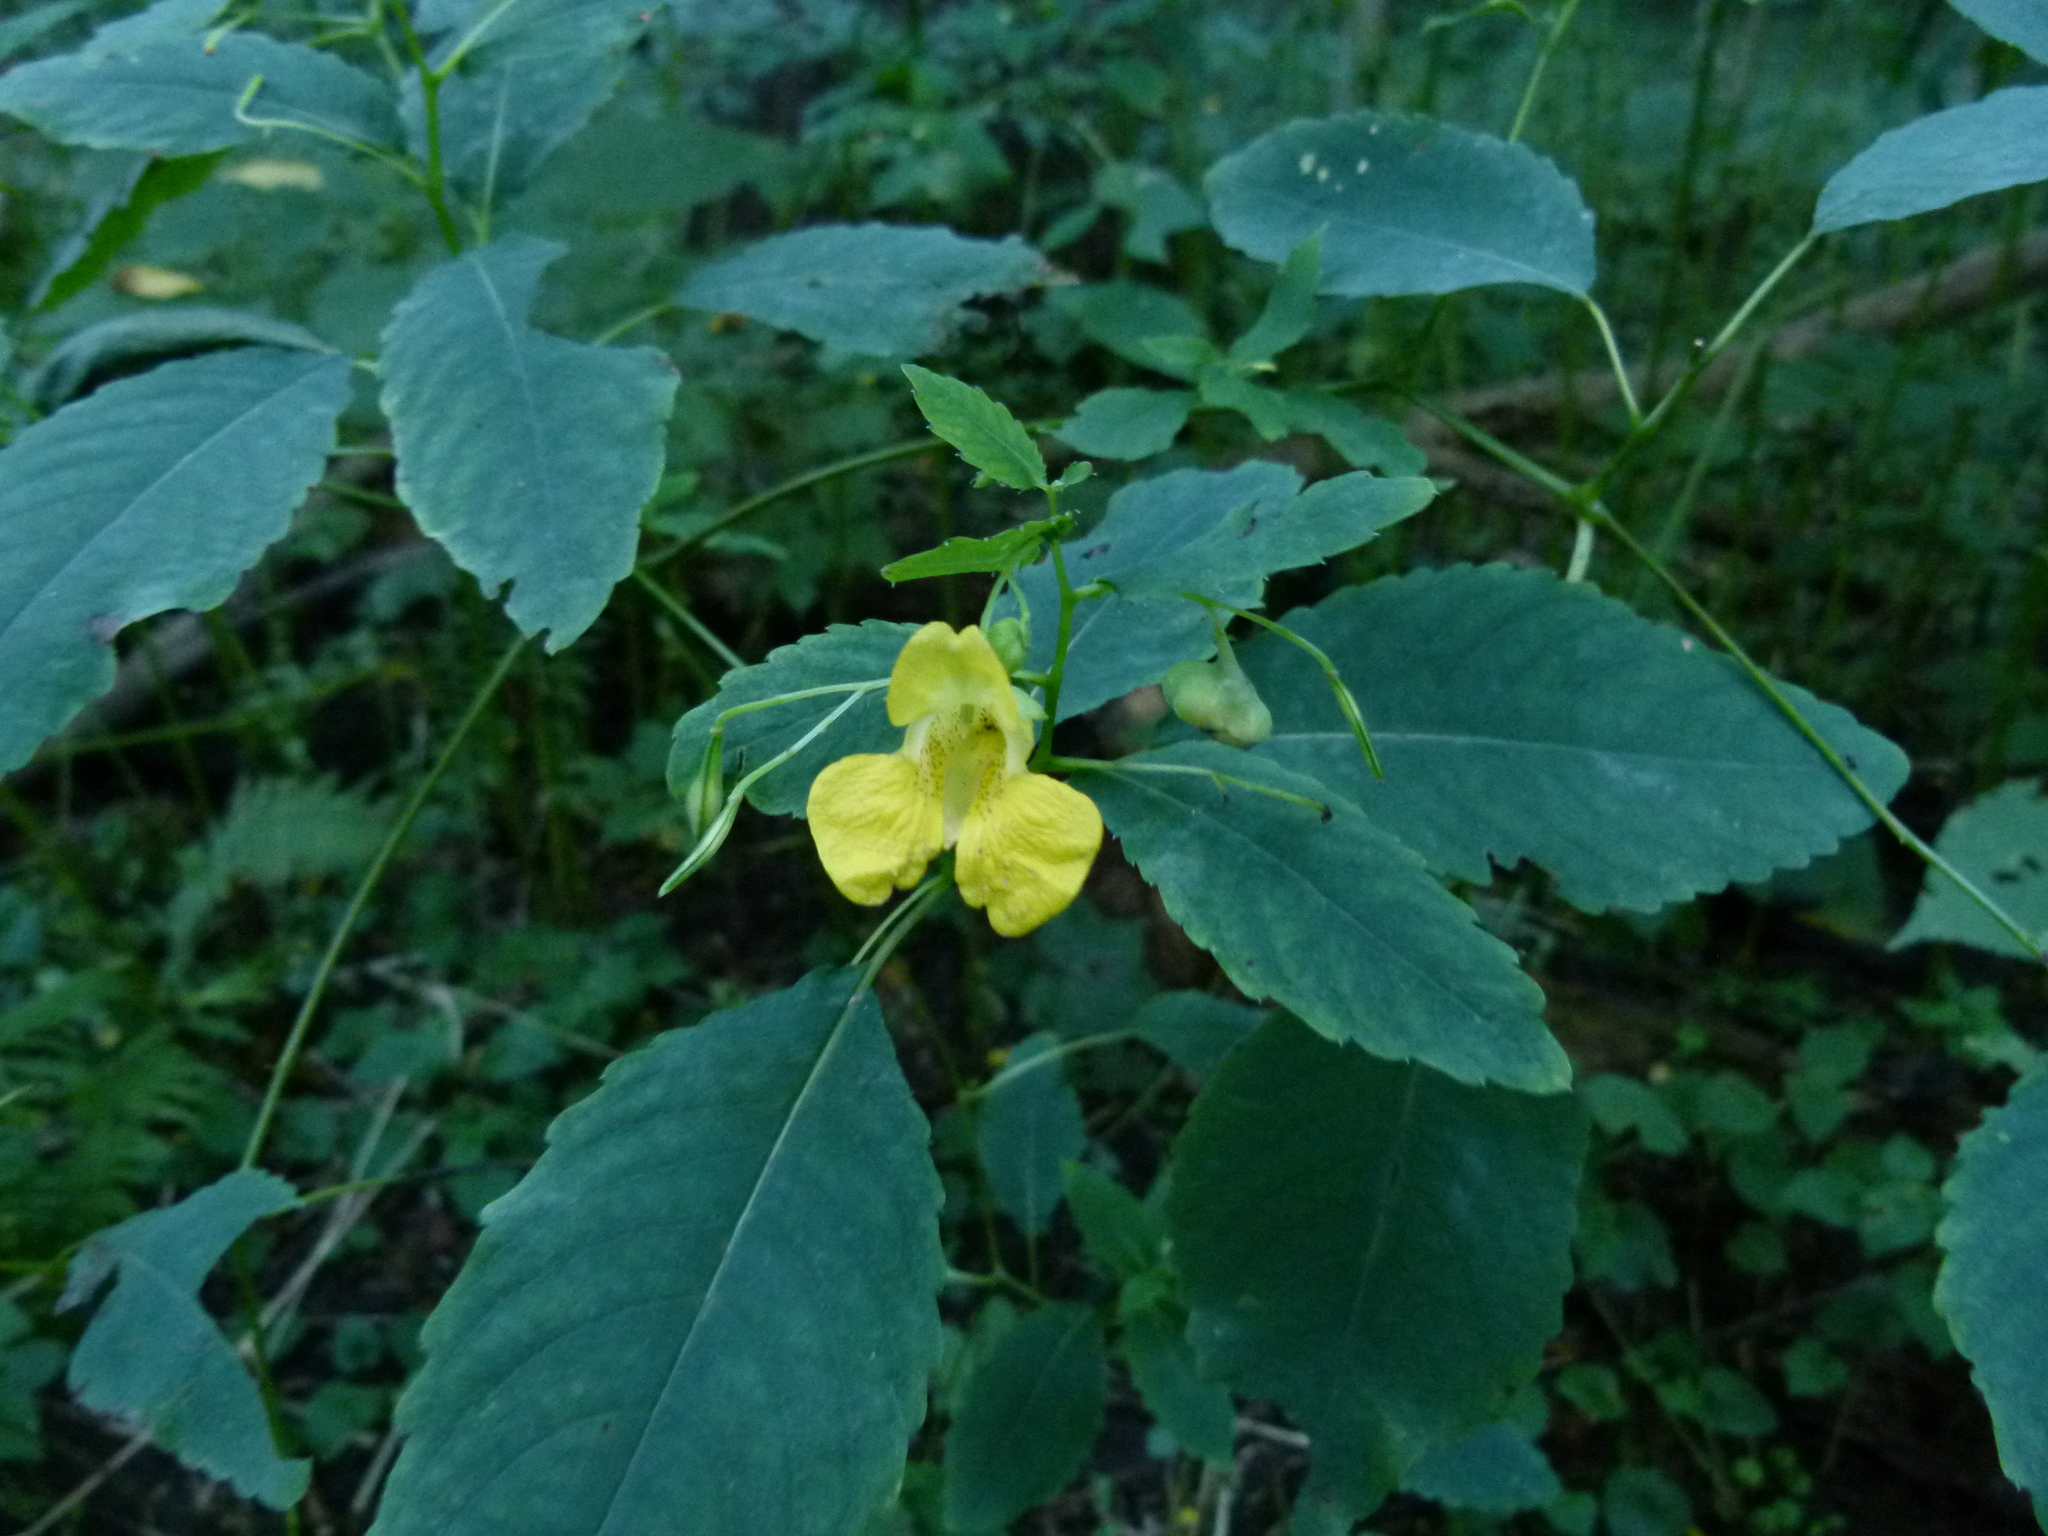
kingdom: Plantae
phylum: Tracheophyta
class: Magnoliopsida
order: Ericales
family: Balsaminaceae
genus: Impatiens
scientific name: Impatiens pallida
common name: Pale snapweed
